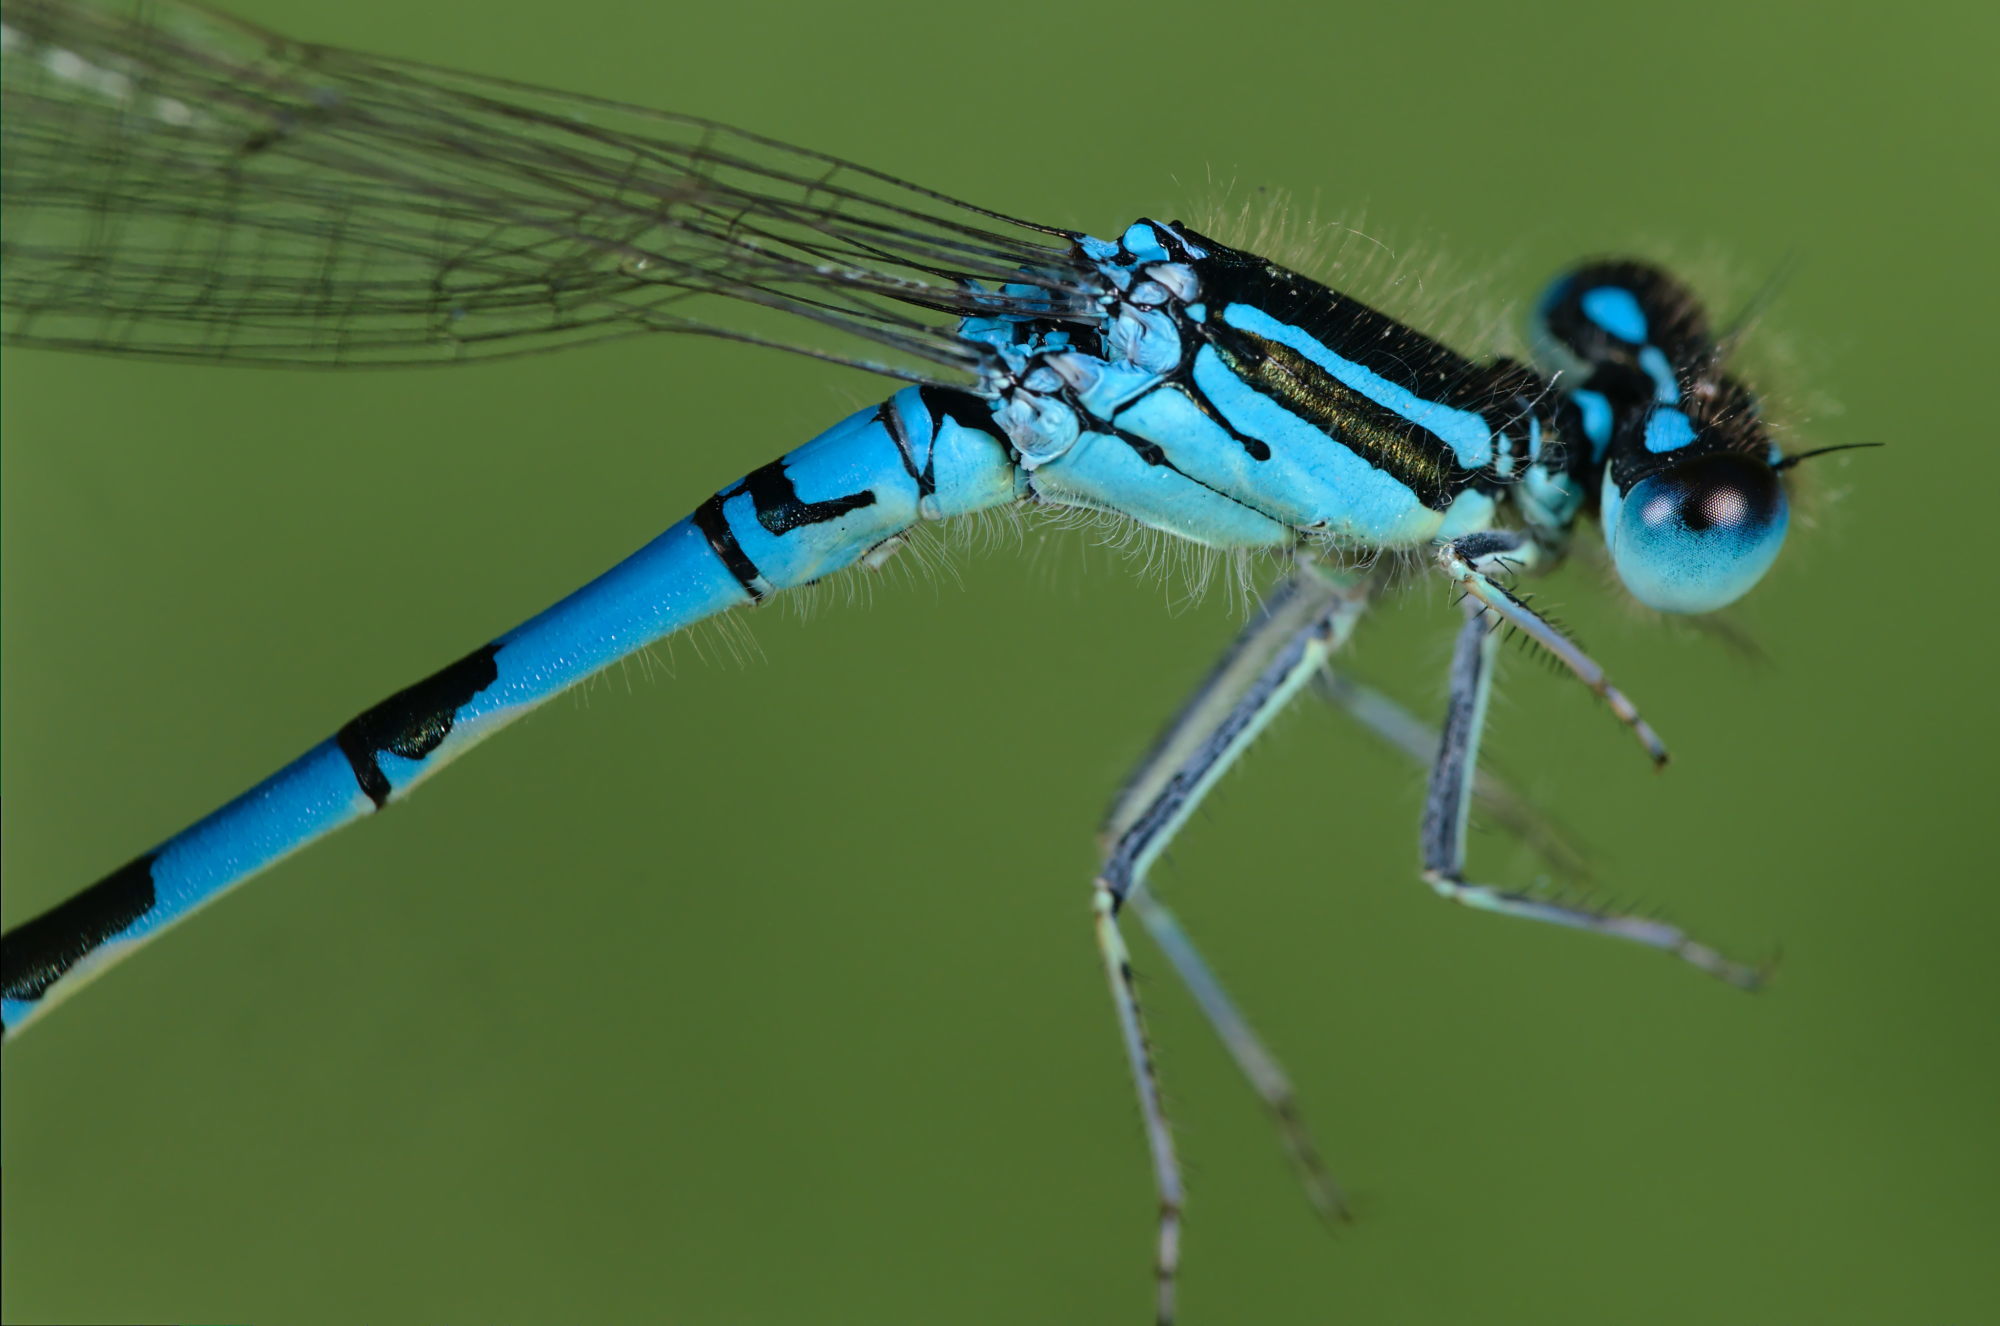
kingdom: Animalia
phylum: Arthropoda
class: Insecta
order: Odonata
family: Coenagrionidae
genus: Coenagrion
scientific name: Coenagrion scitulum
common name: Dainty bluet
